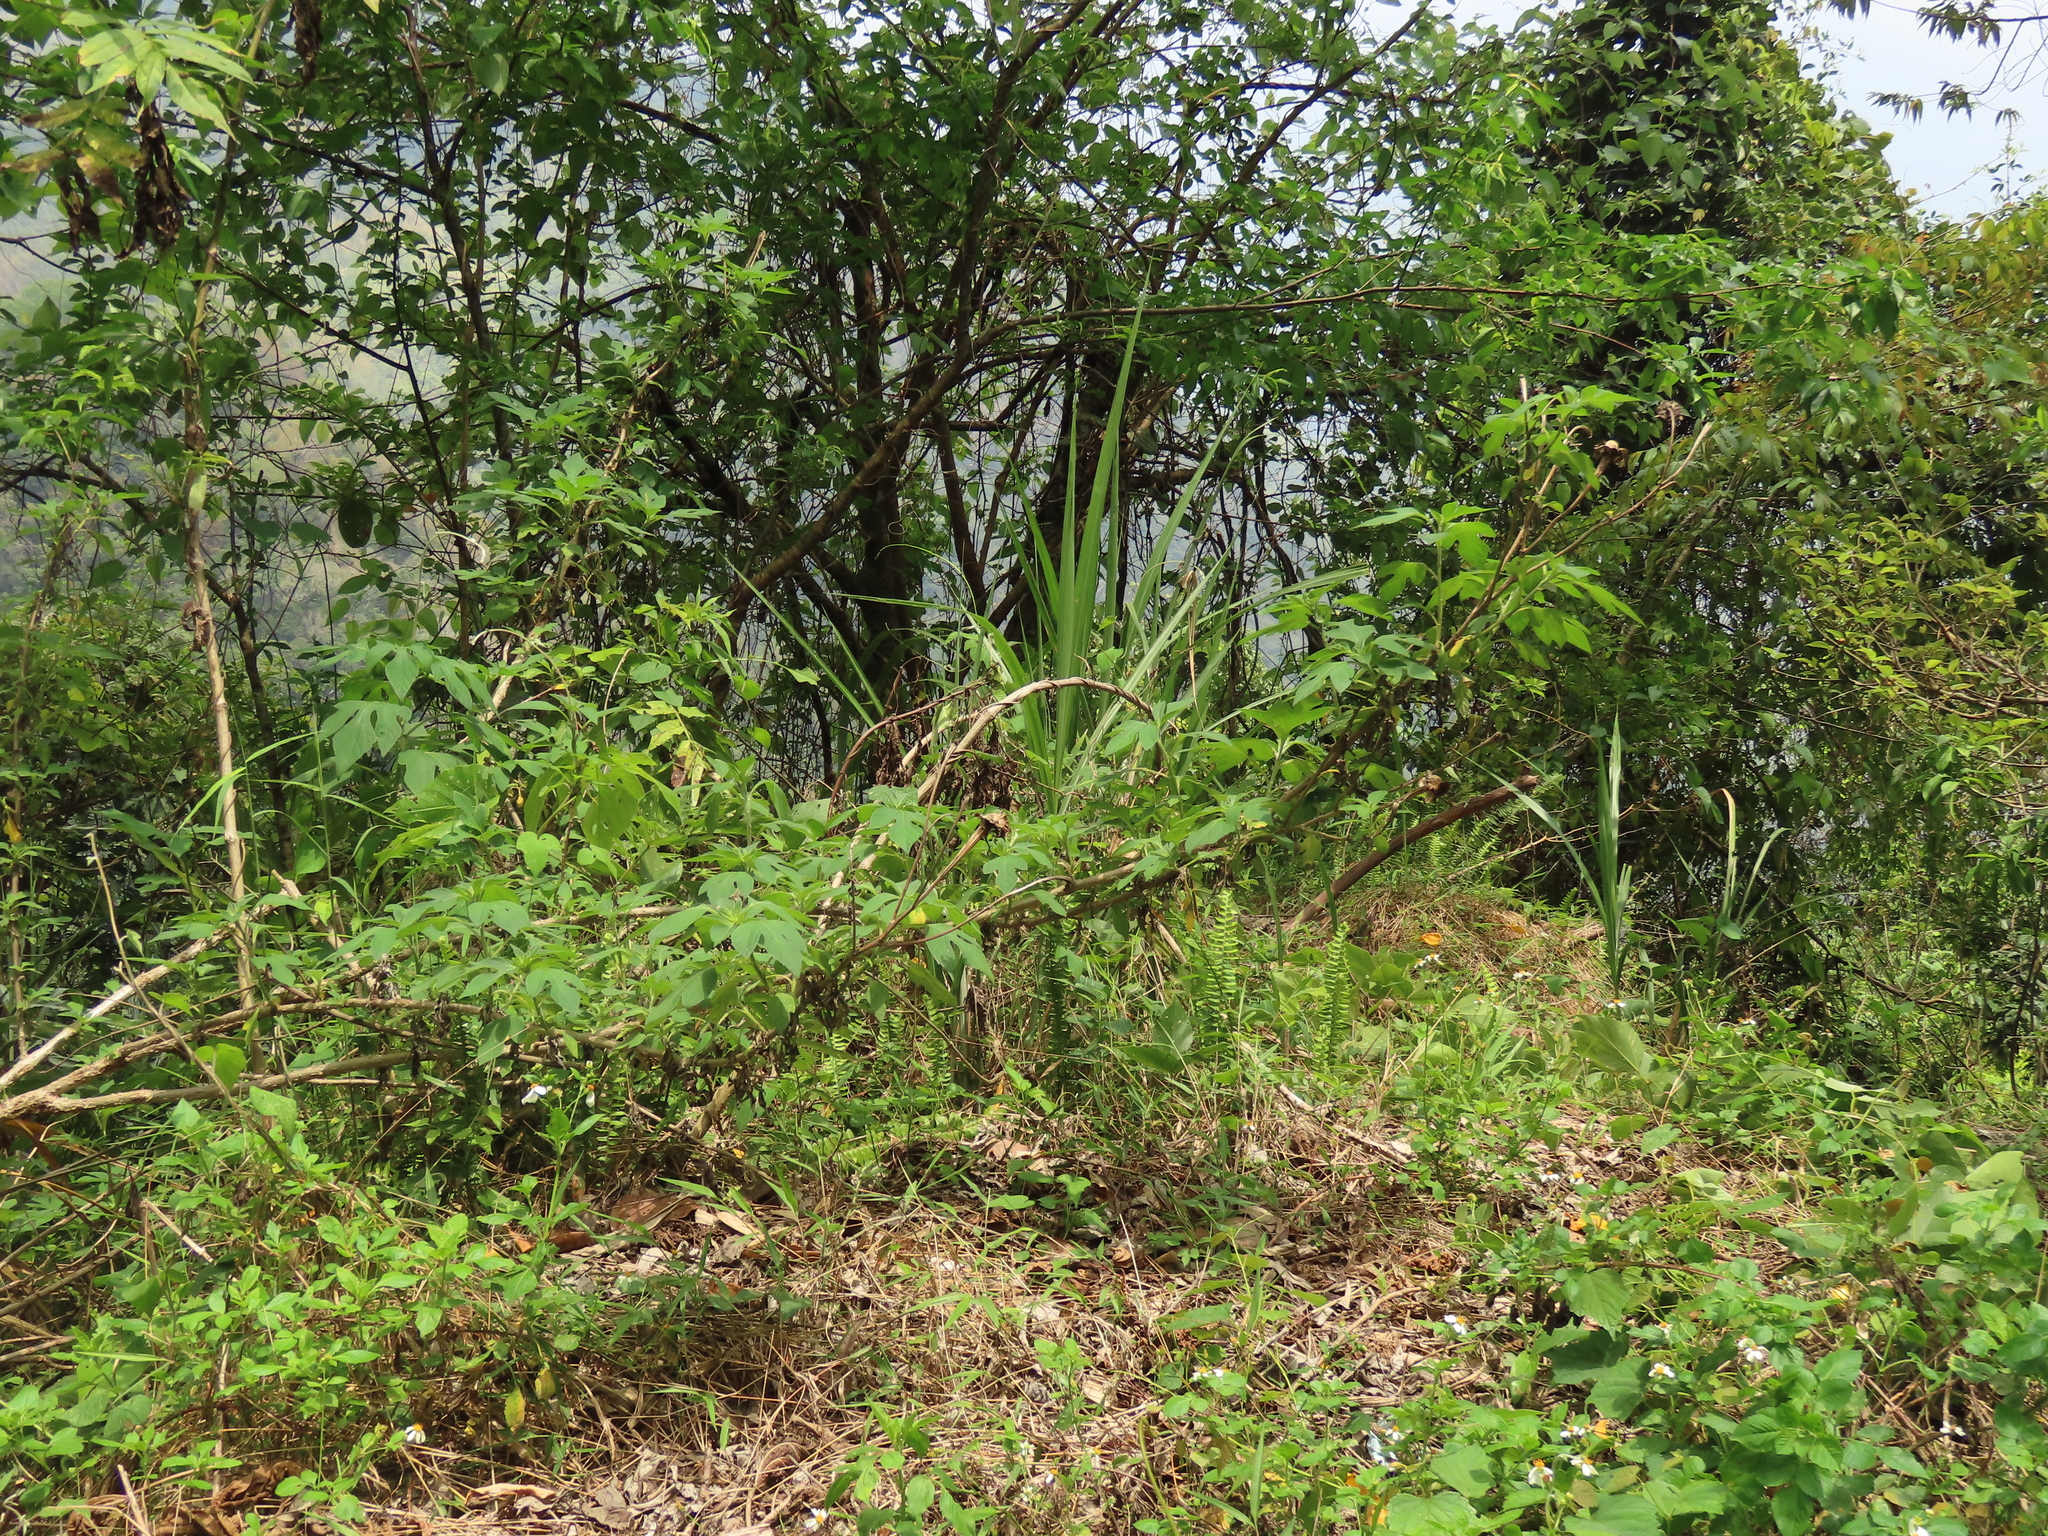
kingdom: Plantae
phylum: Tracheophyta
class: Magnoliopsida
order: Asterales
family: Asteraceae
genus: Tithonia
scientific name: Tithonia diversifolia
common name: Tree marigold
